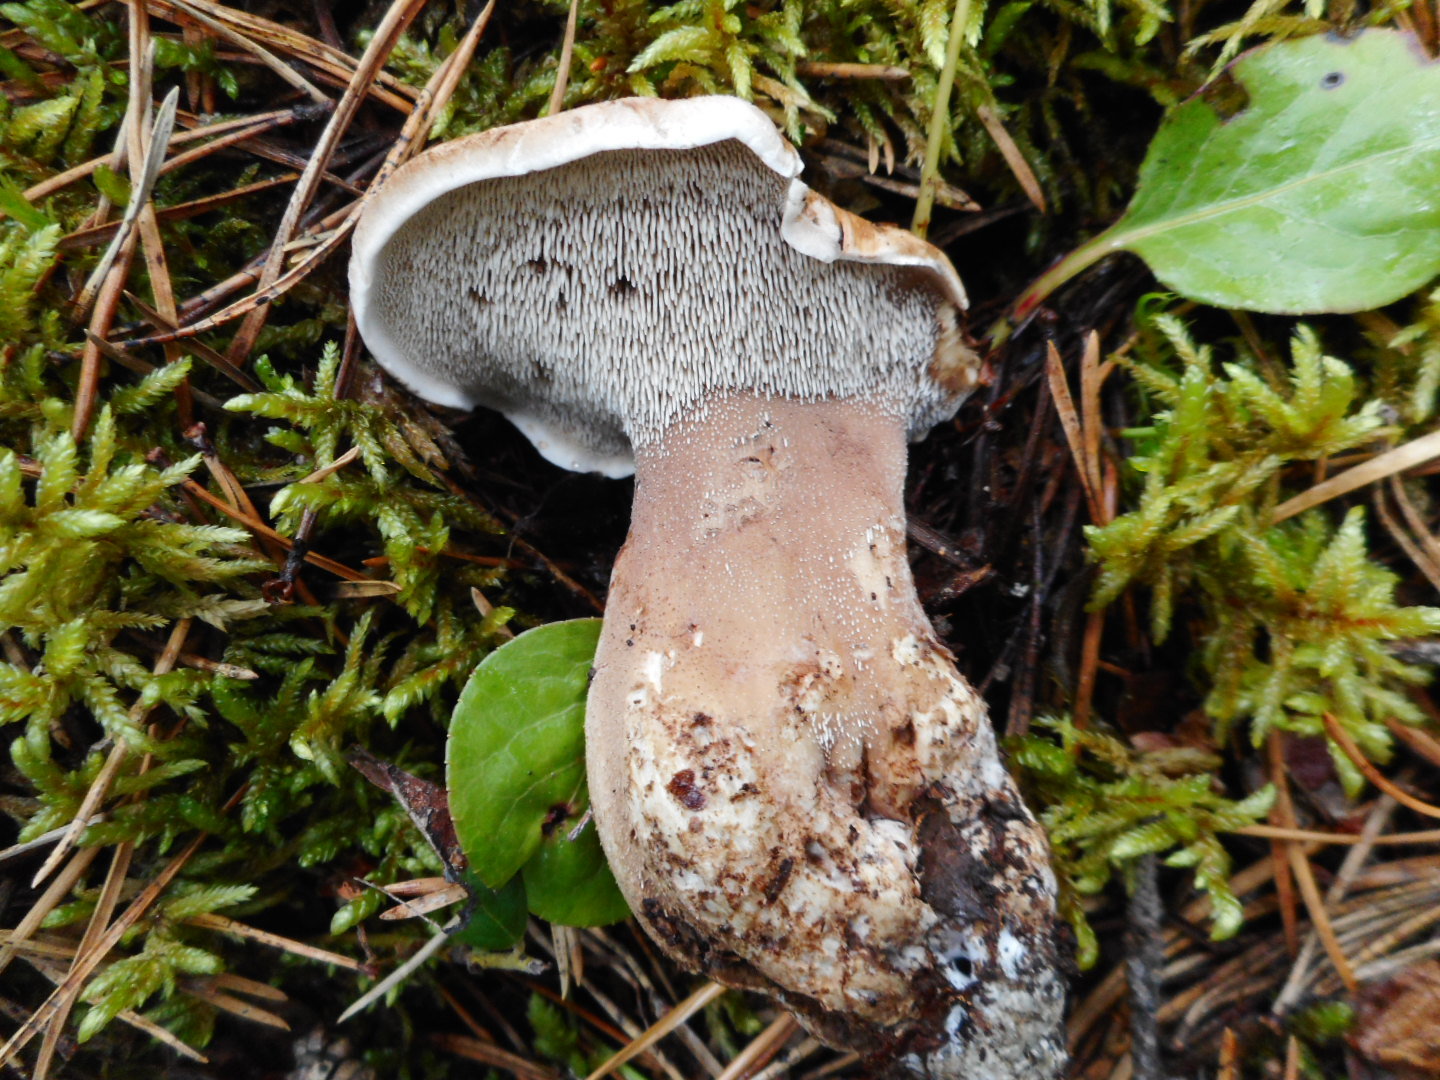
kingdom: Fungi
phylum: Basidiomycota
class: Agaricomycetes
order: Thelephorales
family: Thelephoraceae
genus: Phellodon
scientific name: Phellodon fuligineoalbus
